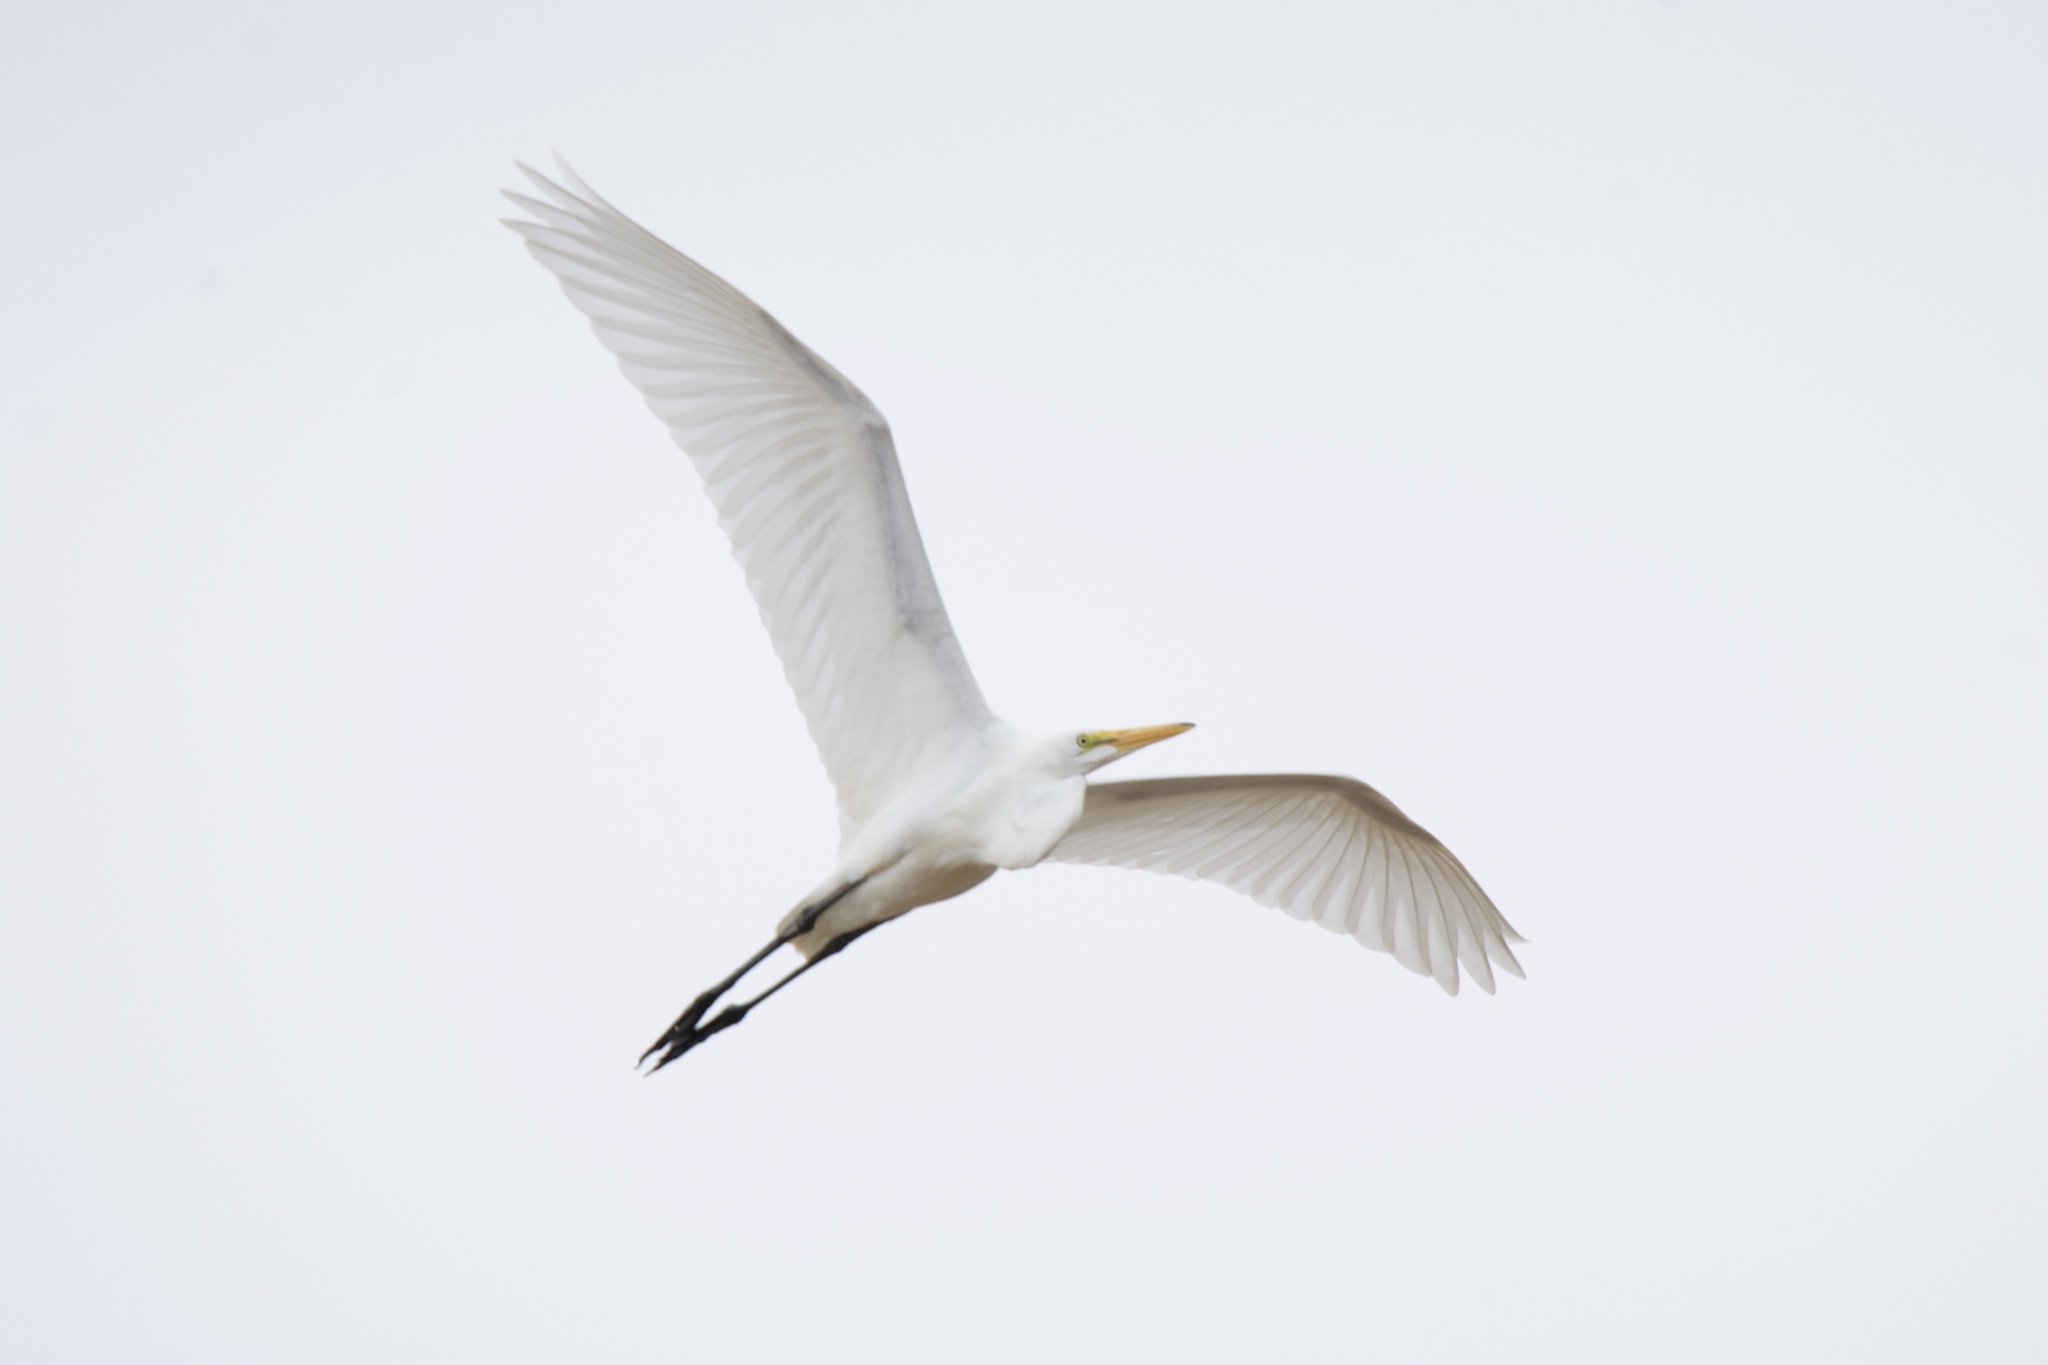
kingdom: Animalia
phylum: Chordata
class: Aves
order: Pelecaniformes
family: Ardeidae
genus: Ardea
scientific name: Ardea alba
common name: Great egret
